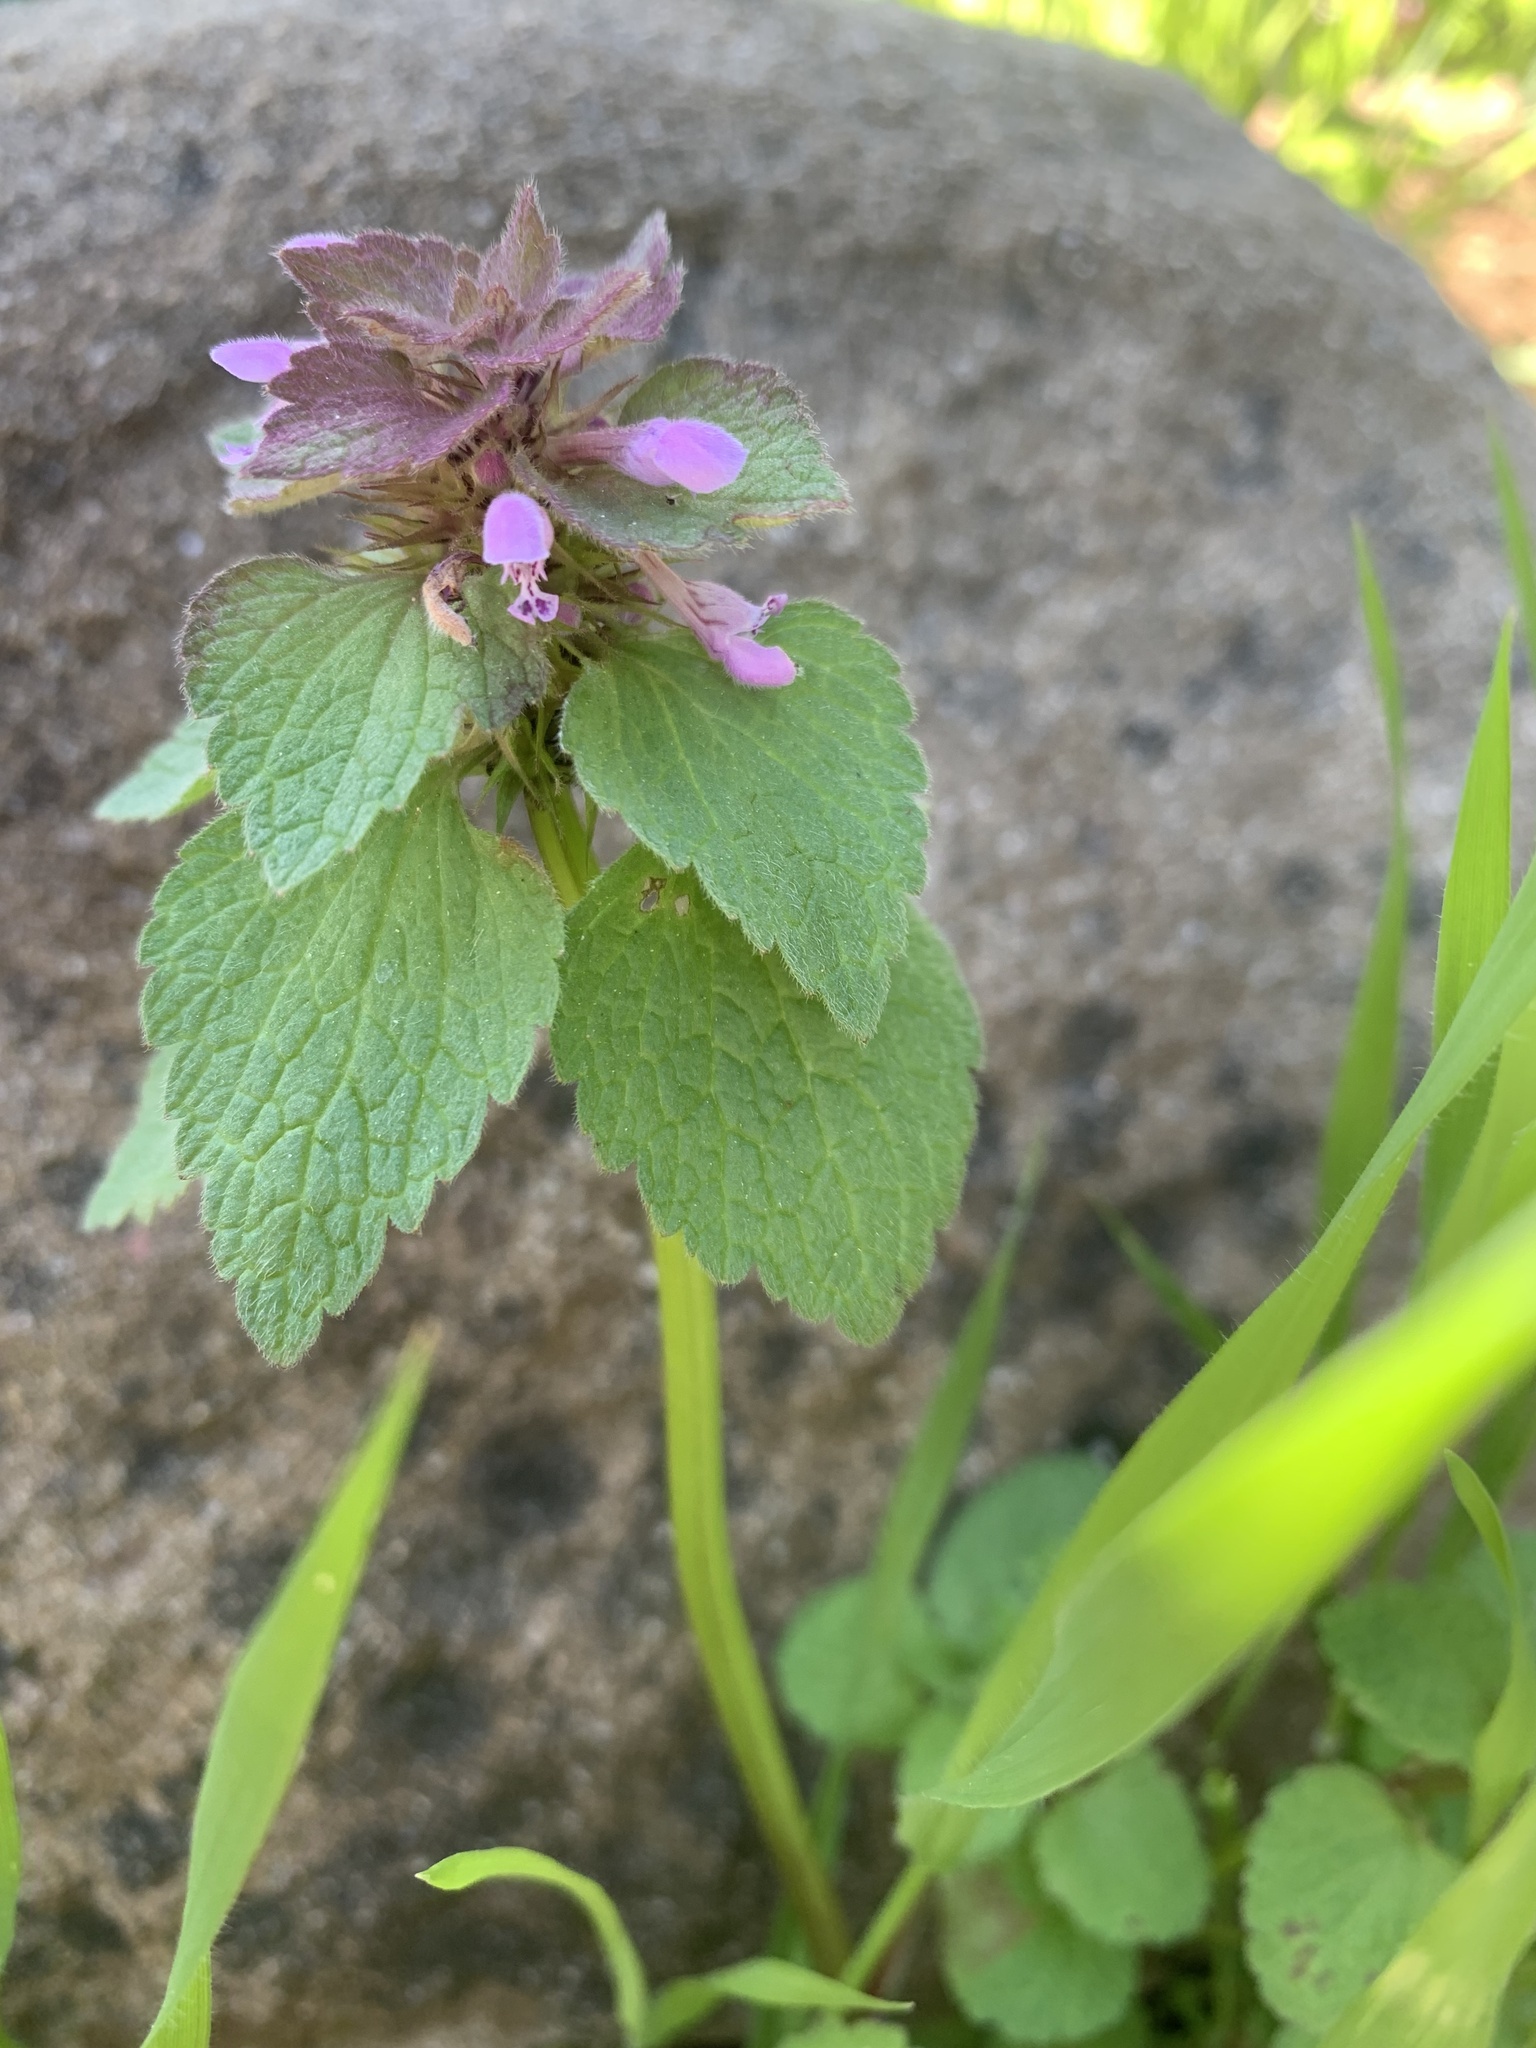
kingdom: Plantae
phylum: Tracheophyta
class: Magnoliopsida
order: Lamiales
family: Lamiaceae
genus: Lamium
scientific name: Lamium purpureum
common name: Red dead-nettle
